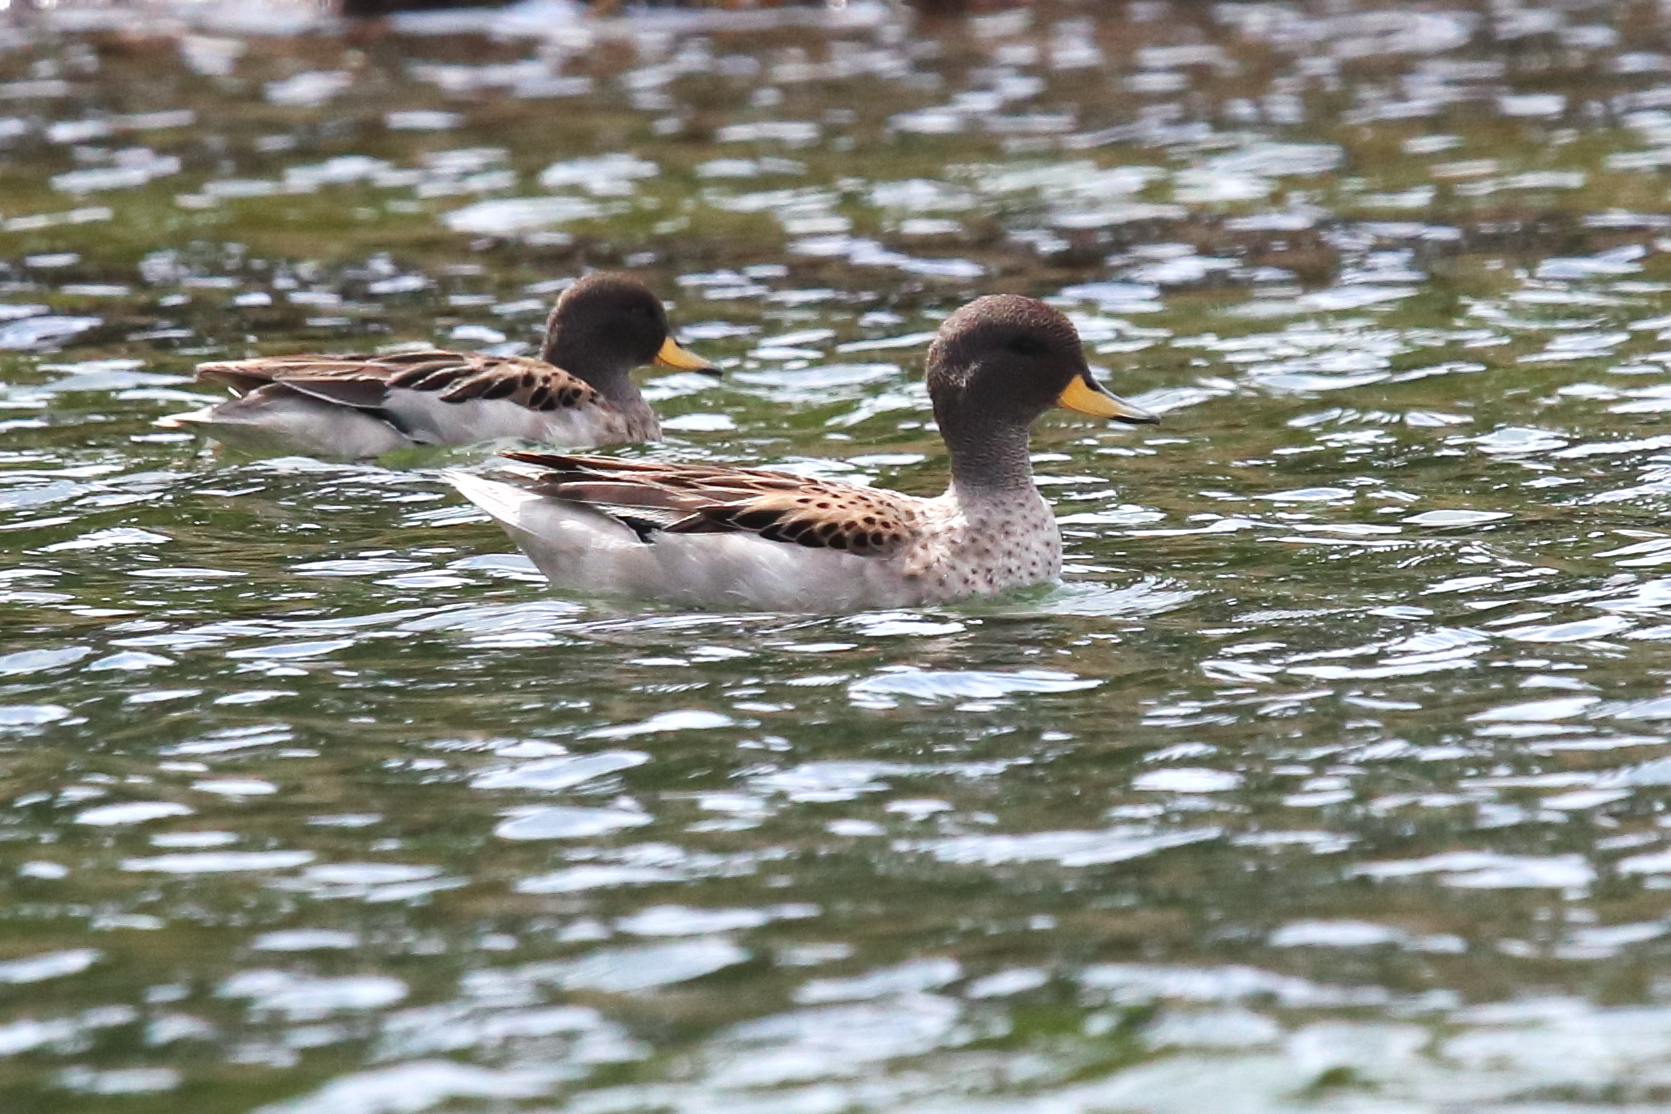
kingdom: Animalia
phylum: Chordata
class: Aves
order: Anseriformes
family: Anatidae
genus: Anas
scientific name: Anas flavirostris
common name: Yellow-billed teal
